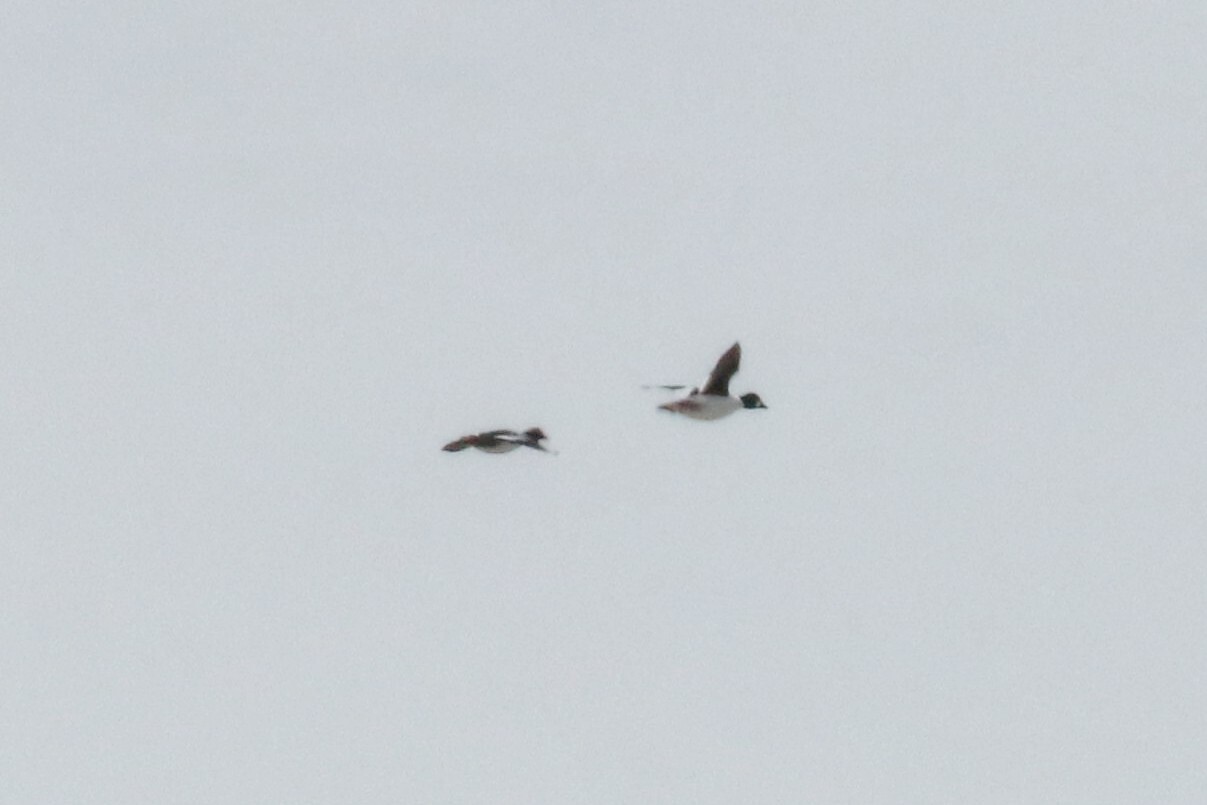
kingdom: Animalia
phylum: Chordata
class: Aves
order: Anseriformes
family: Anatidae
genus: Bucephala
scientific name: Bucephala clangula
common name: Common goldeneye
